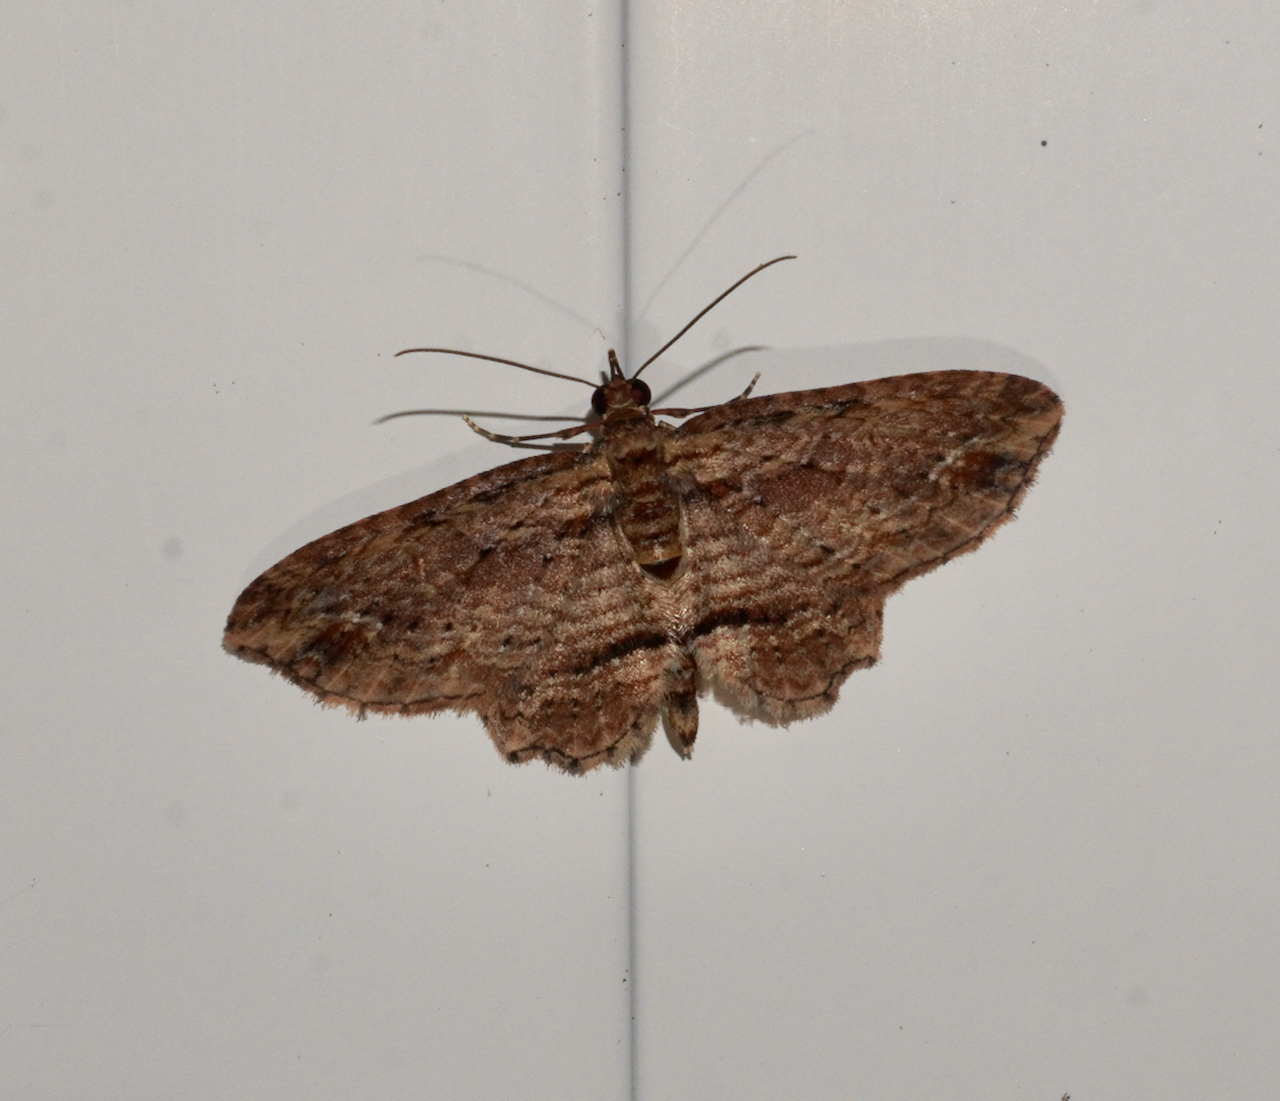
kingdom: Animalia
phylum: Arthropoda
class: Insecta
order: Lepidoptera
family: Geometridae
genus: Chloroclystis
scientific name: Chloroclystis filata
